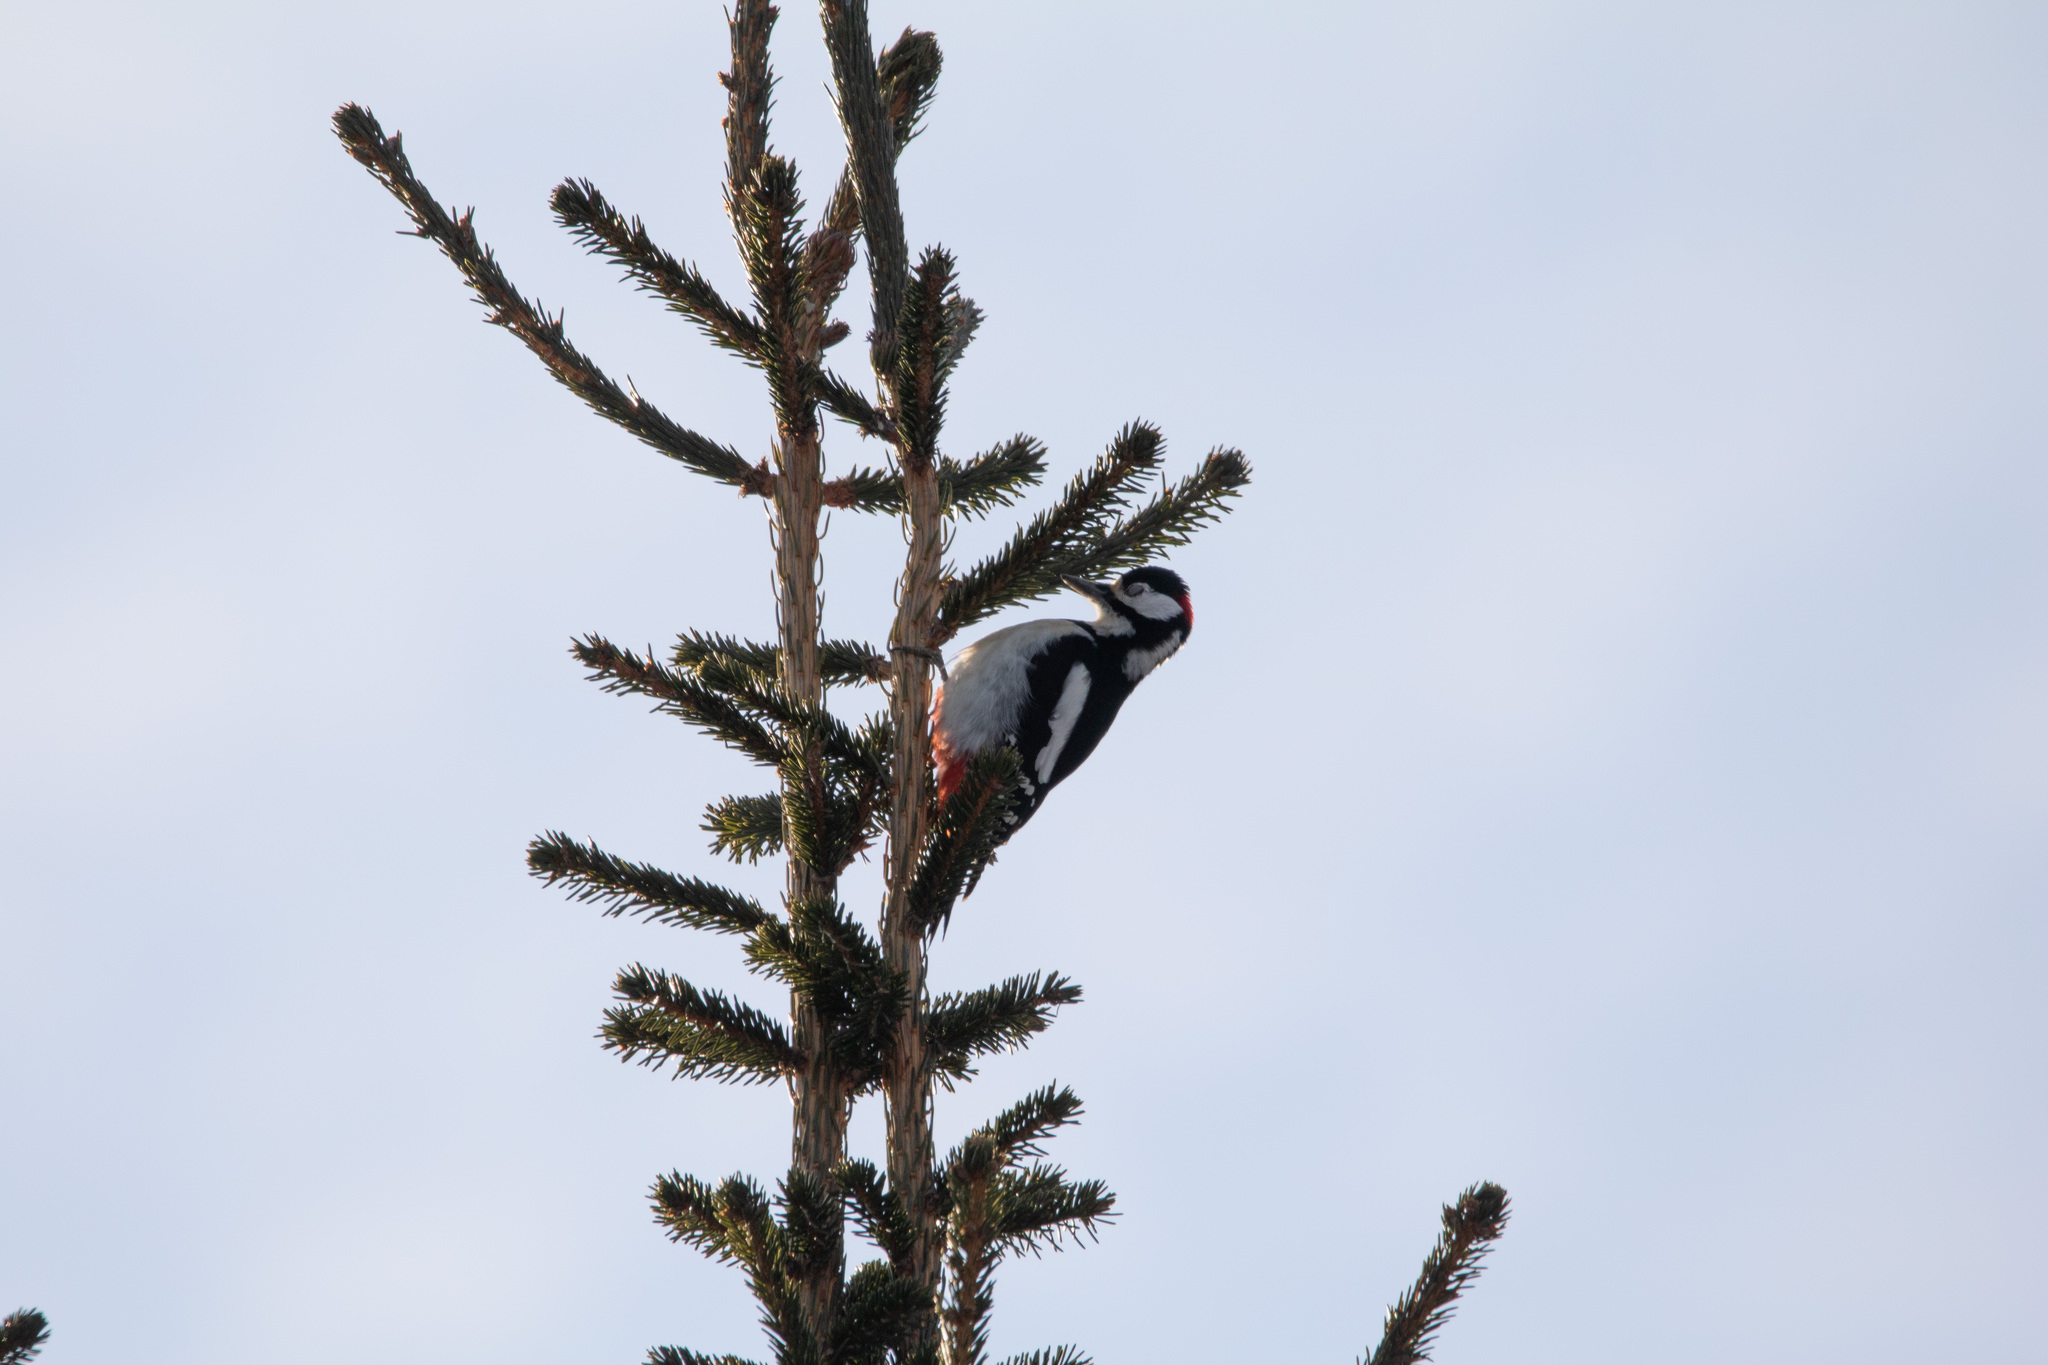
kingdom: Animalia
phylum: Chordata
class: Aves
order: Piciformes
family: Picidae
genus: Dendrocopos
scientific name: Dendrocopos major
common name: Great spotted woodpecker
